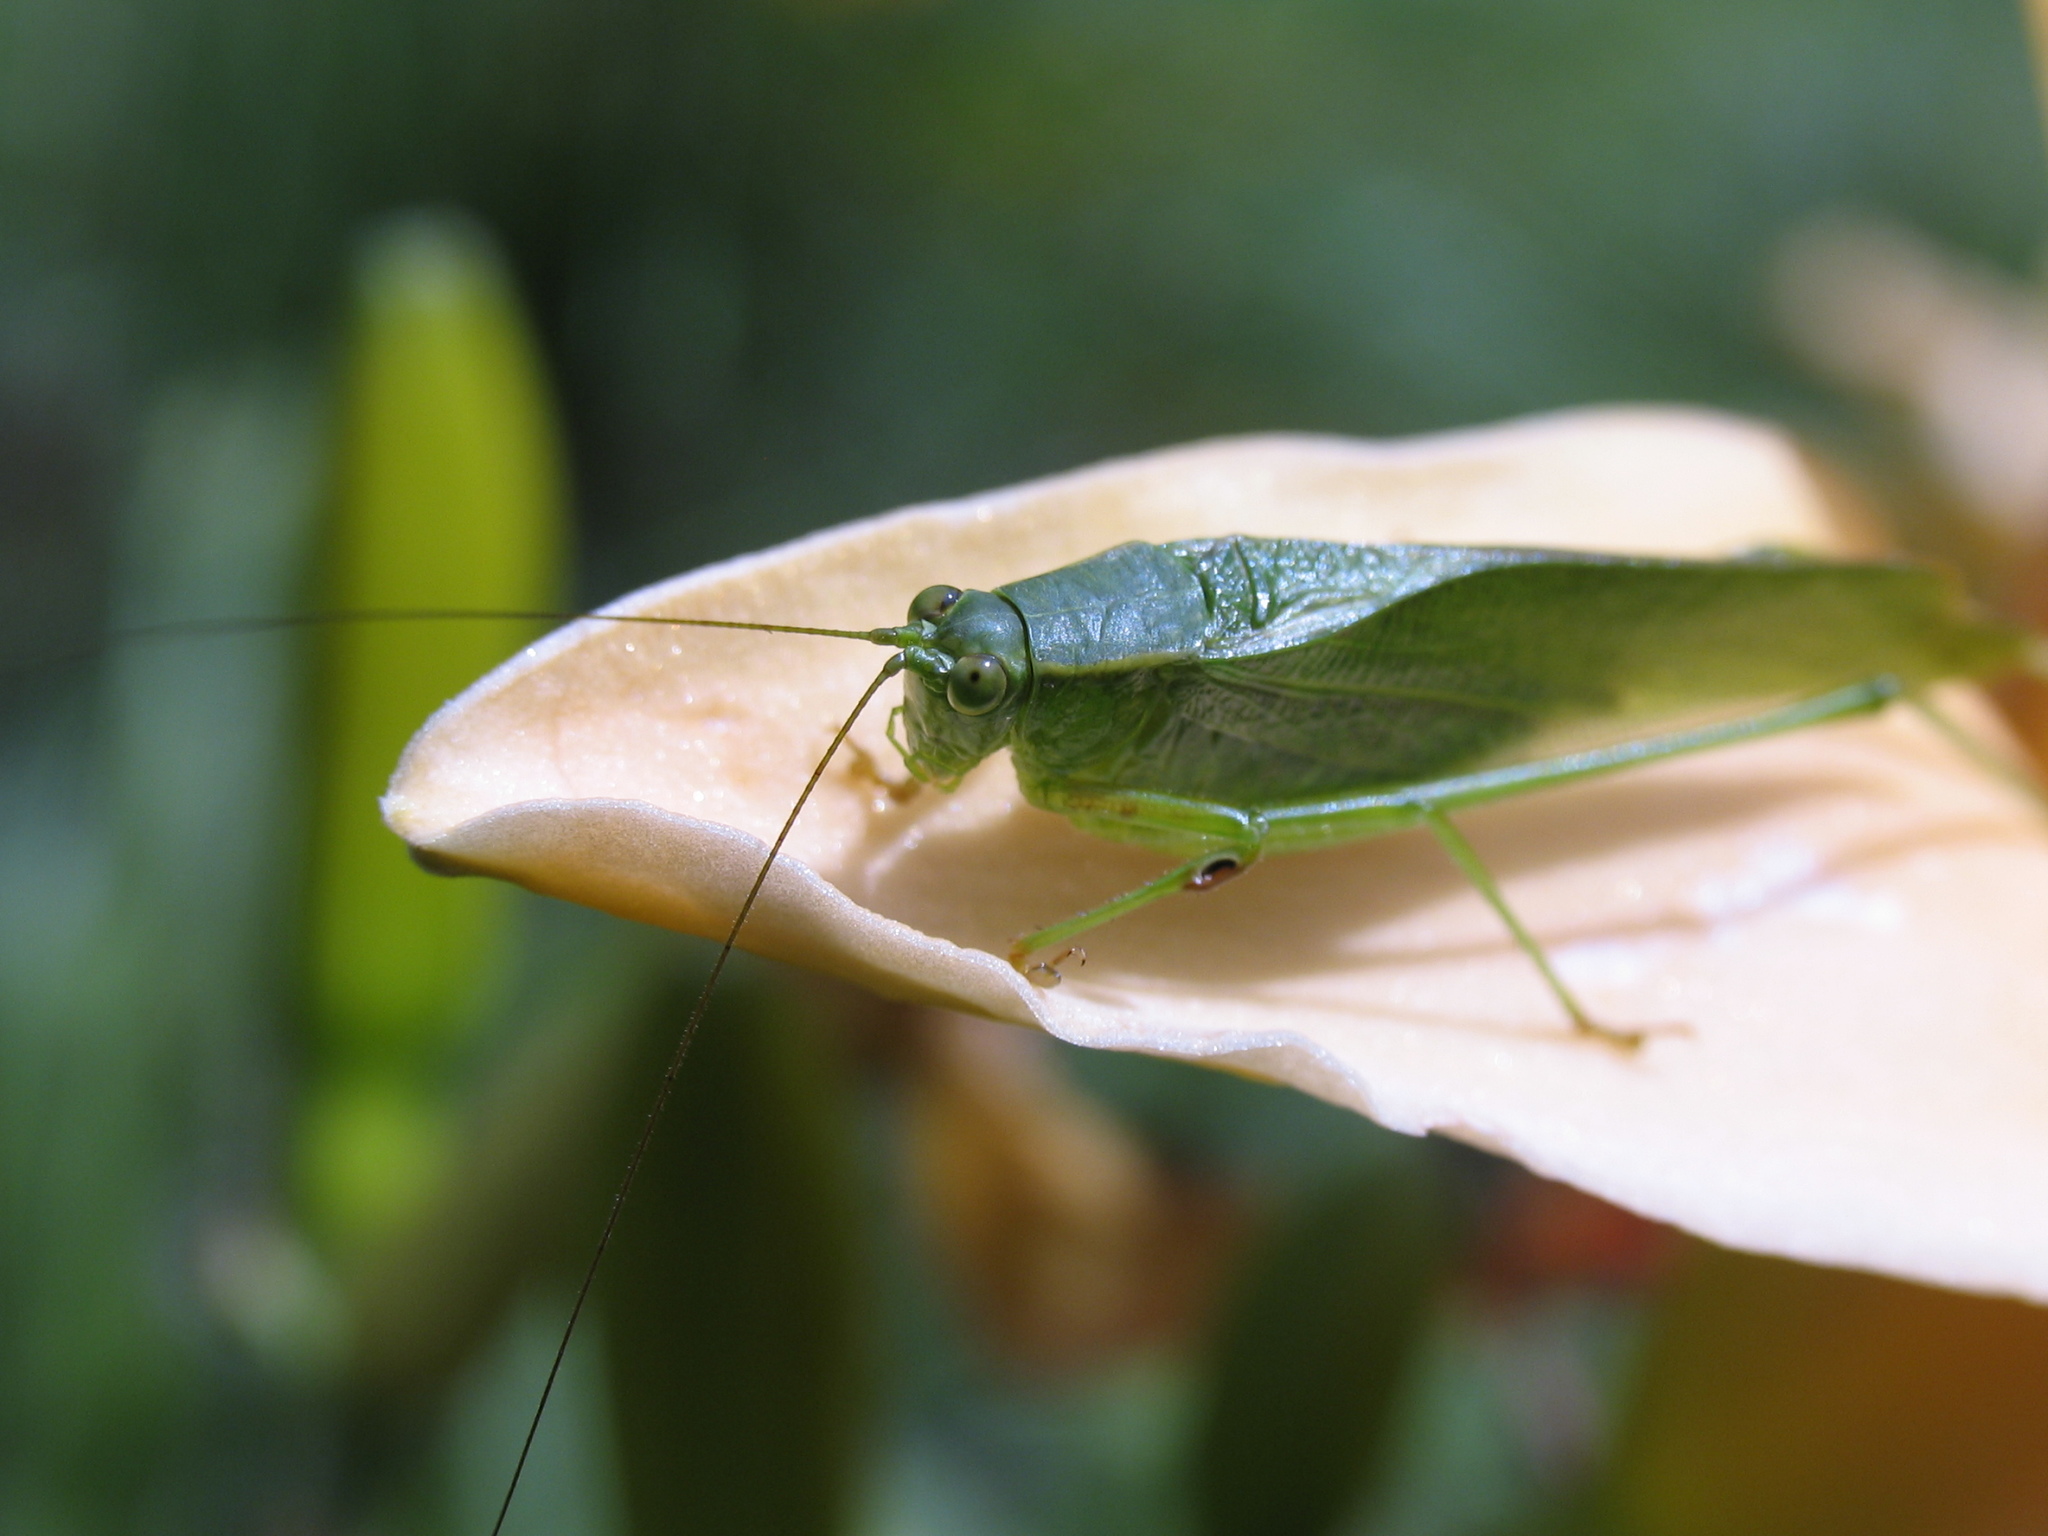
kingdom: Animalia
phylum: Arthropoda
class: Insecta
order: Orthoptera
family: Tettigoniidae
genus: Scudderia
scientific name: Scudderia furcata
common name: Fork-tailed bush katydid
